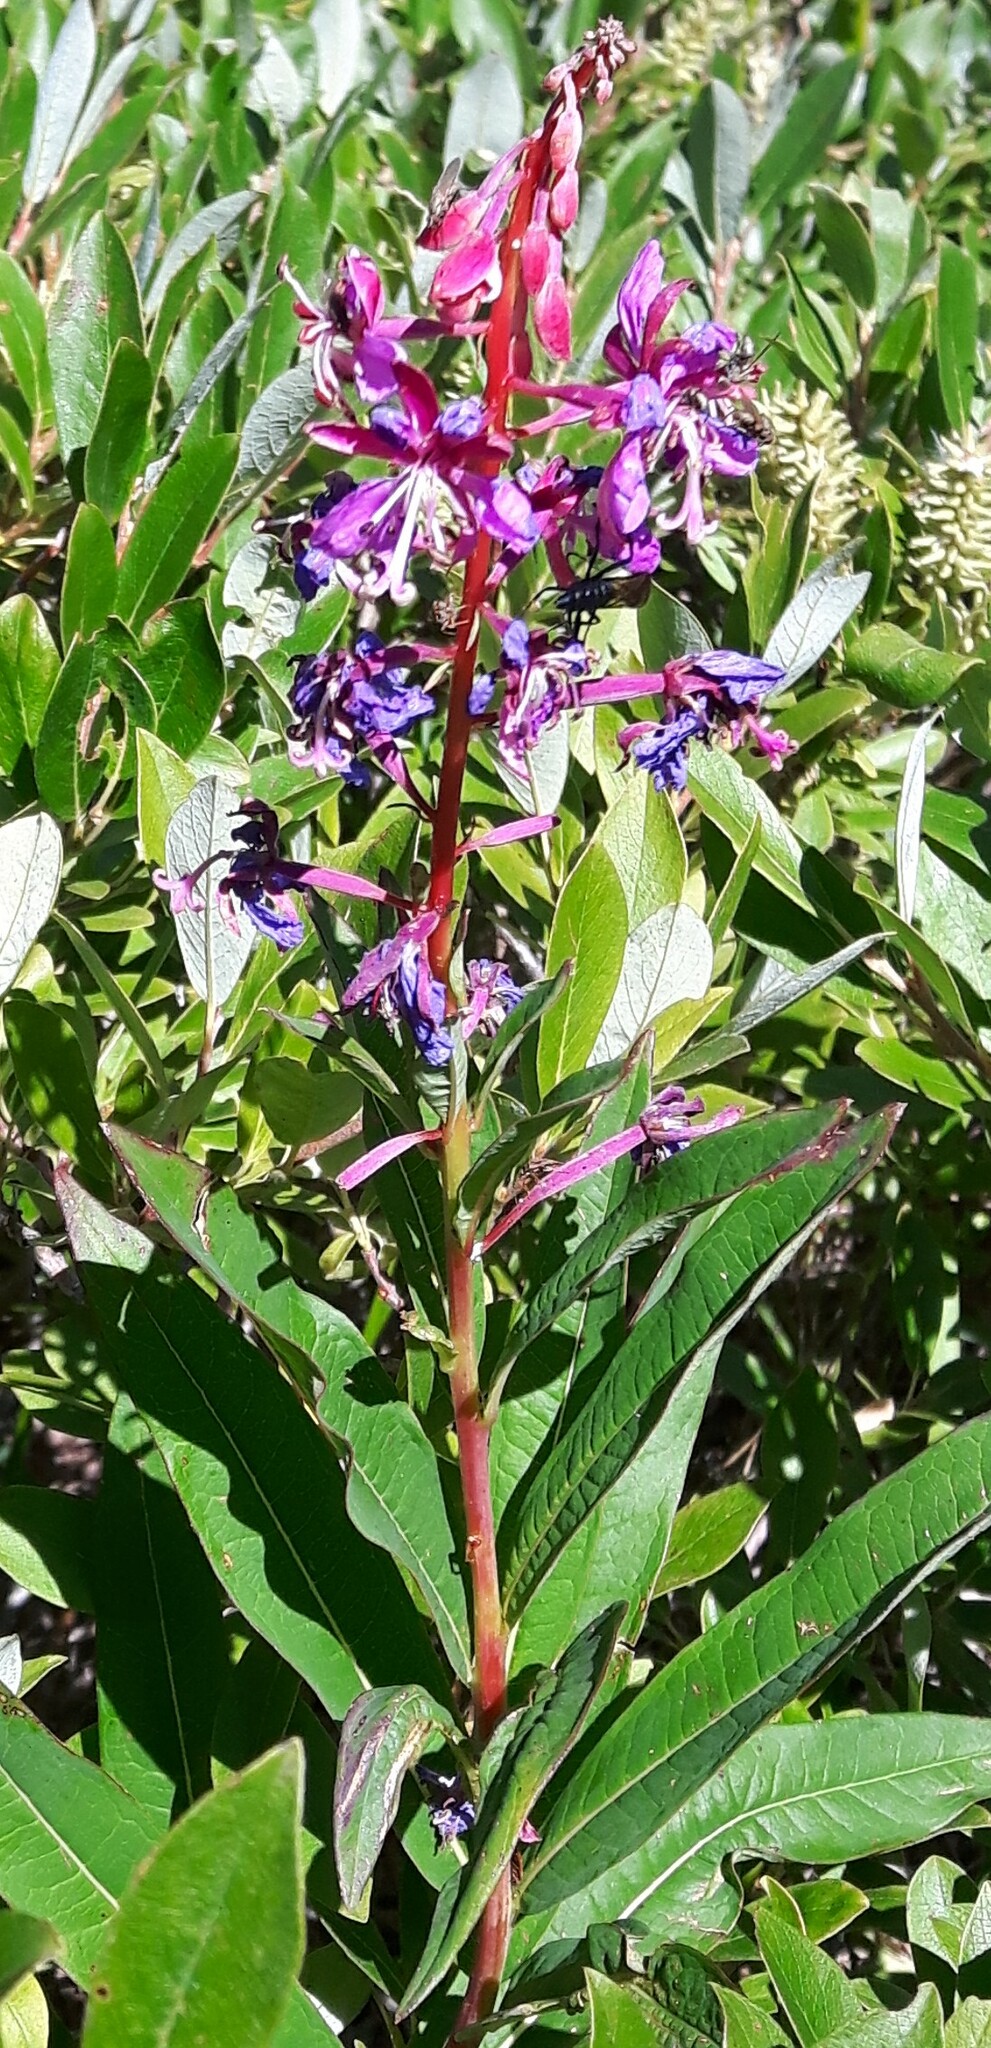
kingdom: Plantae
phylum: Tracheophyta
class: Magnoliopsida
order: Myrtales
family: Onagraceae
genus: Chamaenerion
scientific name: Chamaenerion angustifolium
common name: Fireweed
